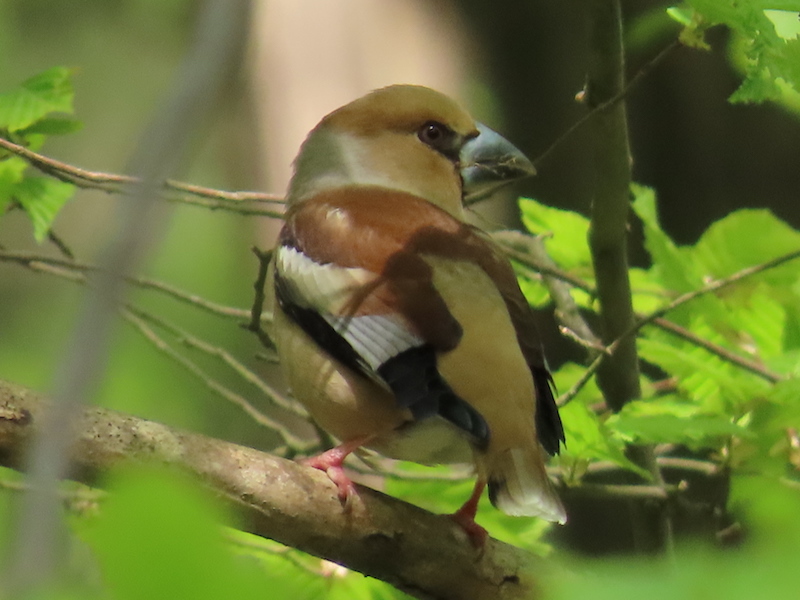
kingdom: Animalia
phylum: Chordata
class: Aves
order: Passeriformes
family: Fringillidae
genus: Coccothraustes
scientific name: Coccothraustes coccothraustes
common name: Hawfinch
